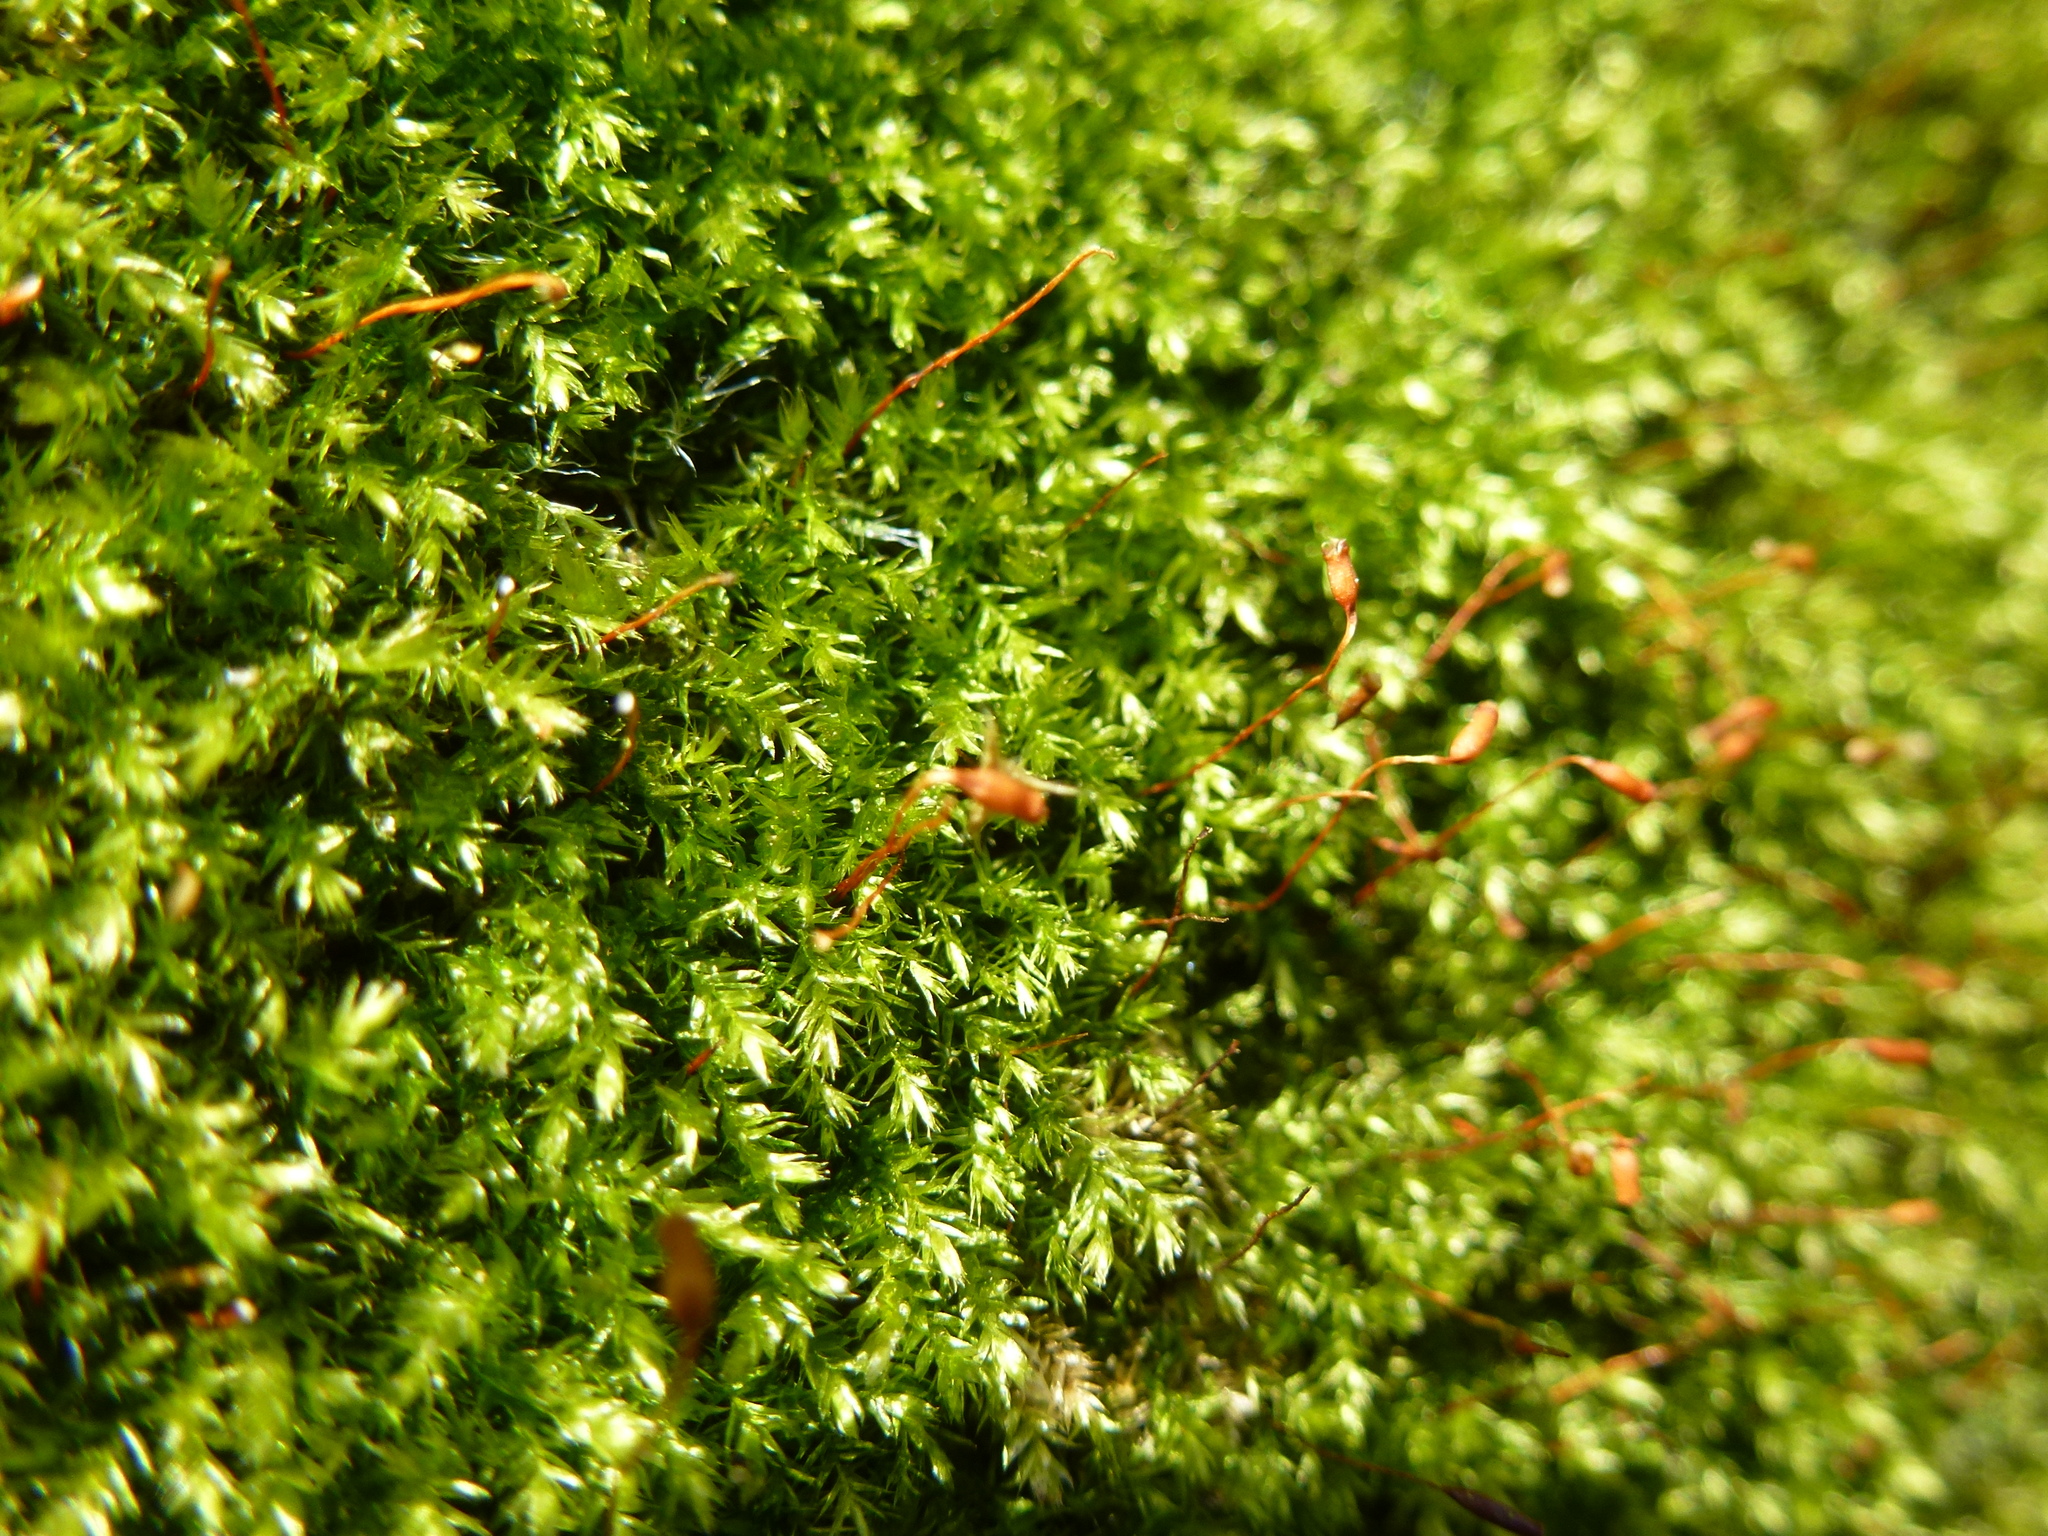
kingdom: Plantae
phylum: Bryophyta
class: Bryopsida
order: Hypnales
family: Brachytheciaceae
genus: Rhynchostegium
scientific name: Rhynchostegium confertum
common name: Clustered feather-moss
